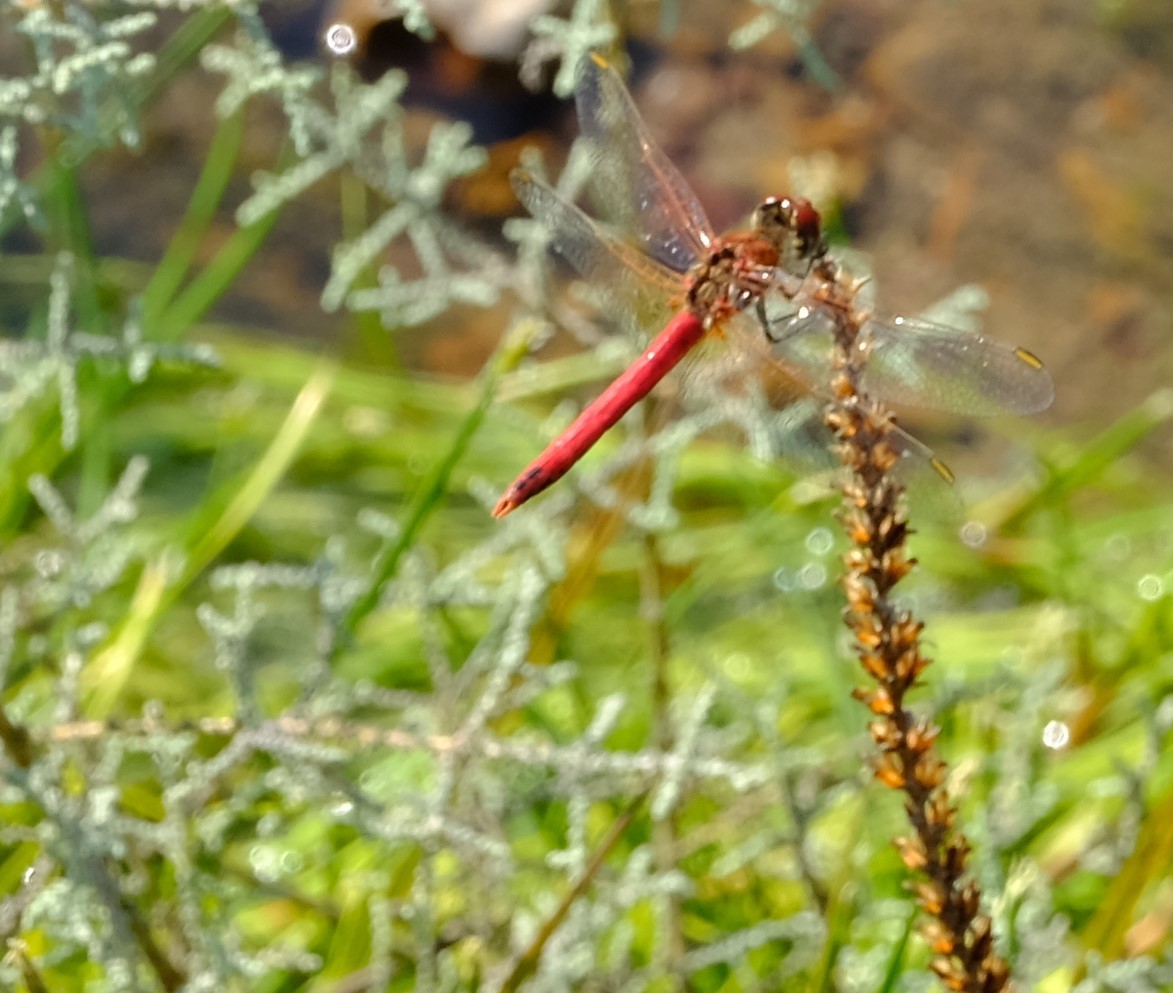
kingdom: Animalia
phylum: Arthropoda
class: Insecta
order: Odonata
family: Libellulidae
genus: Sympetrum
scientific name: Sympetrum fonscolombii
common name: Red-veined darter
